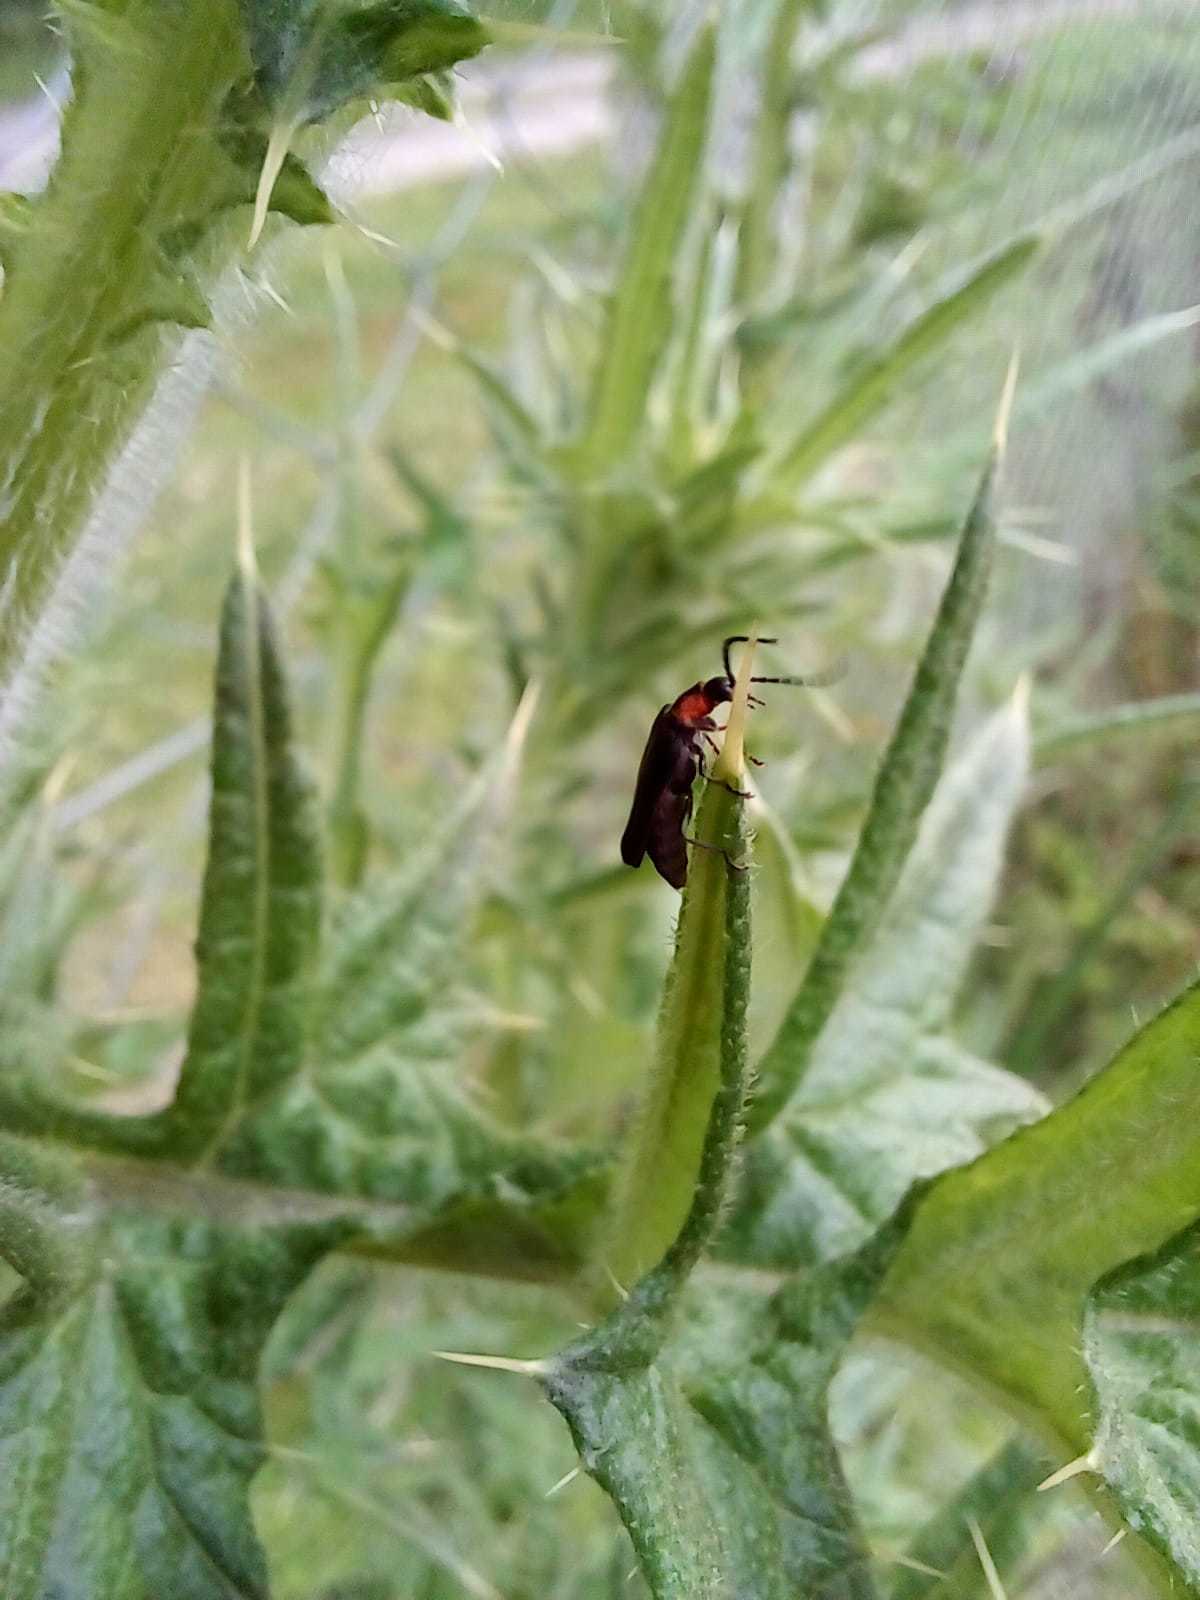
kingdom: Animalia
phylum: Arthropoda
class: Insecta
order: Coleoptera
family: Cantharidae
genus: Polemius
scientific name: Polemius
